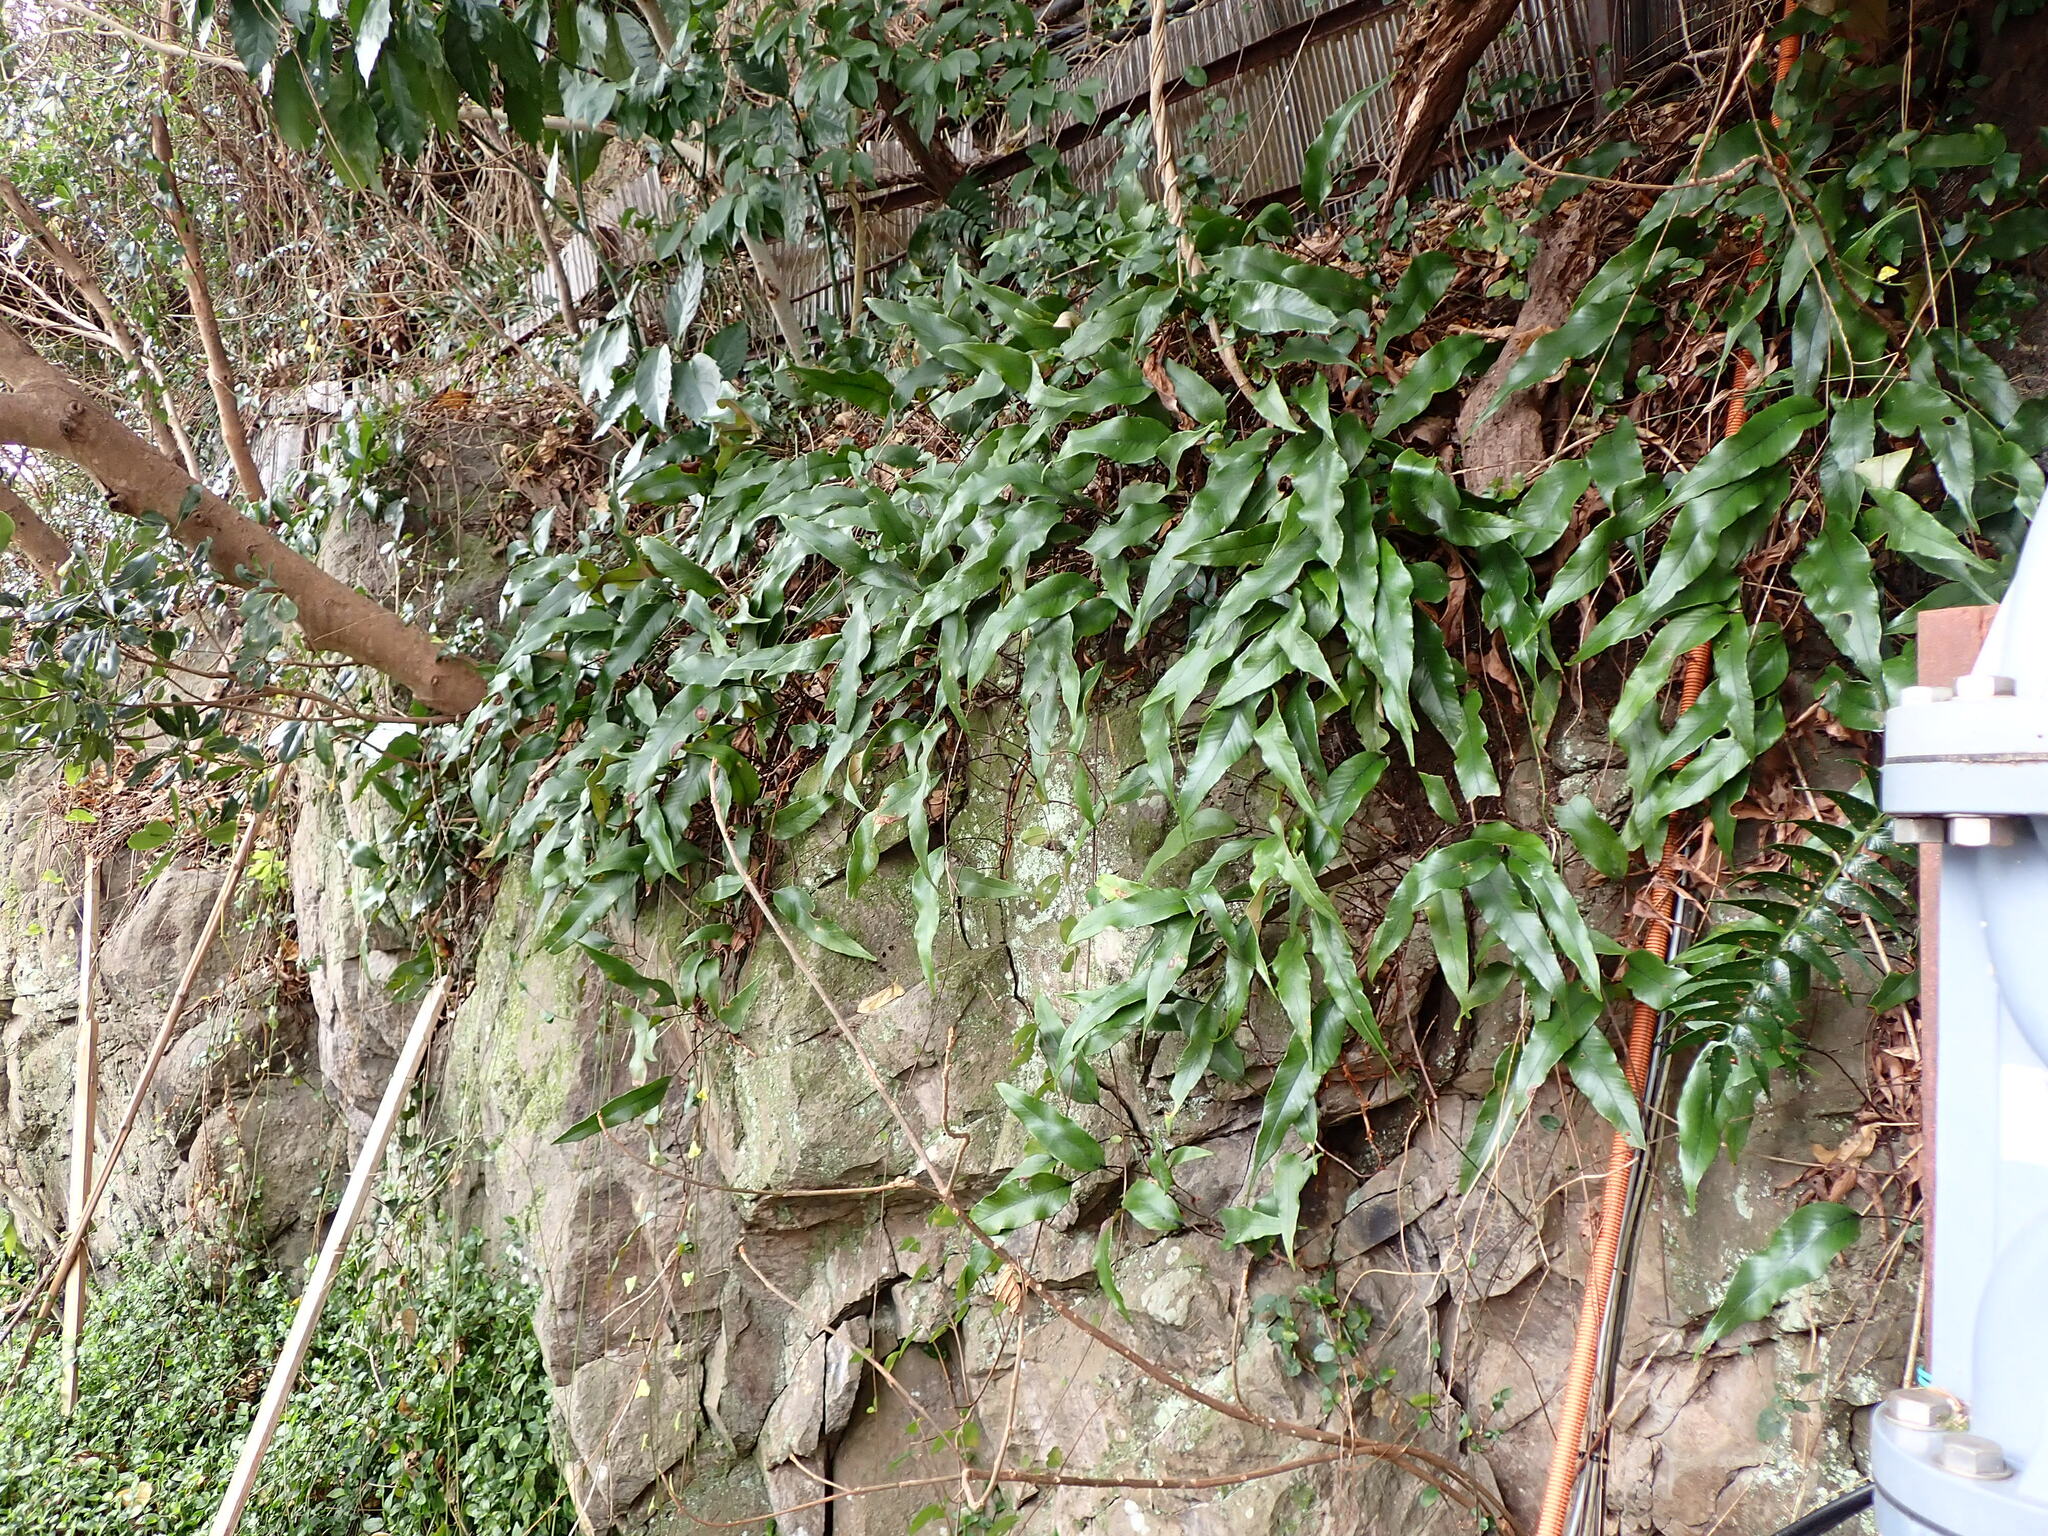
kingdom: Plantae
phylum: Tracheophyta
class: Polypodiopsida
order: Polypodiales
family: Polypodiaceae
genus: Pyrrosia
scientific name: Pyrrosia lingua
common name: Felt fern
